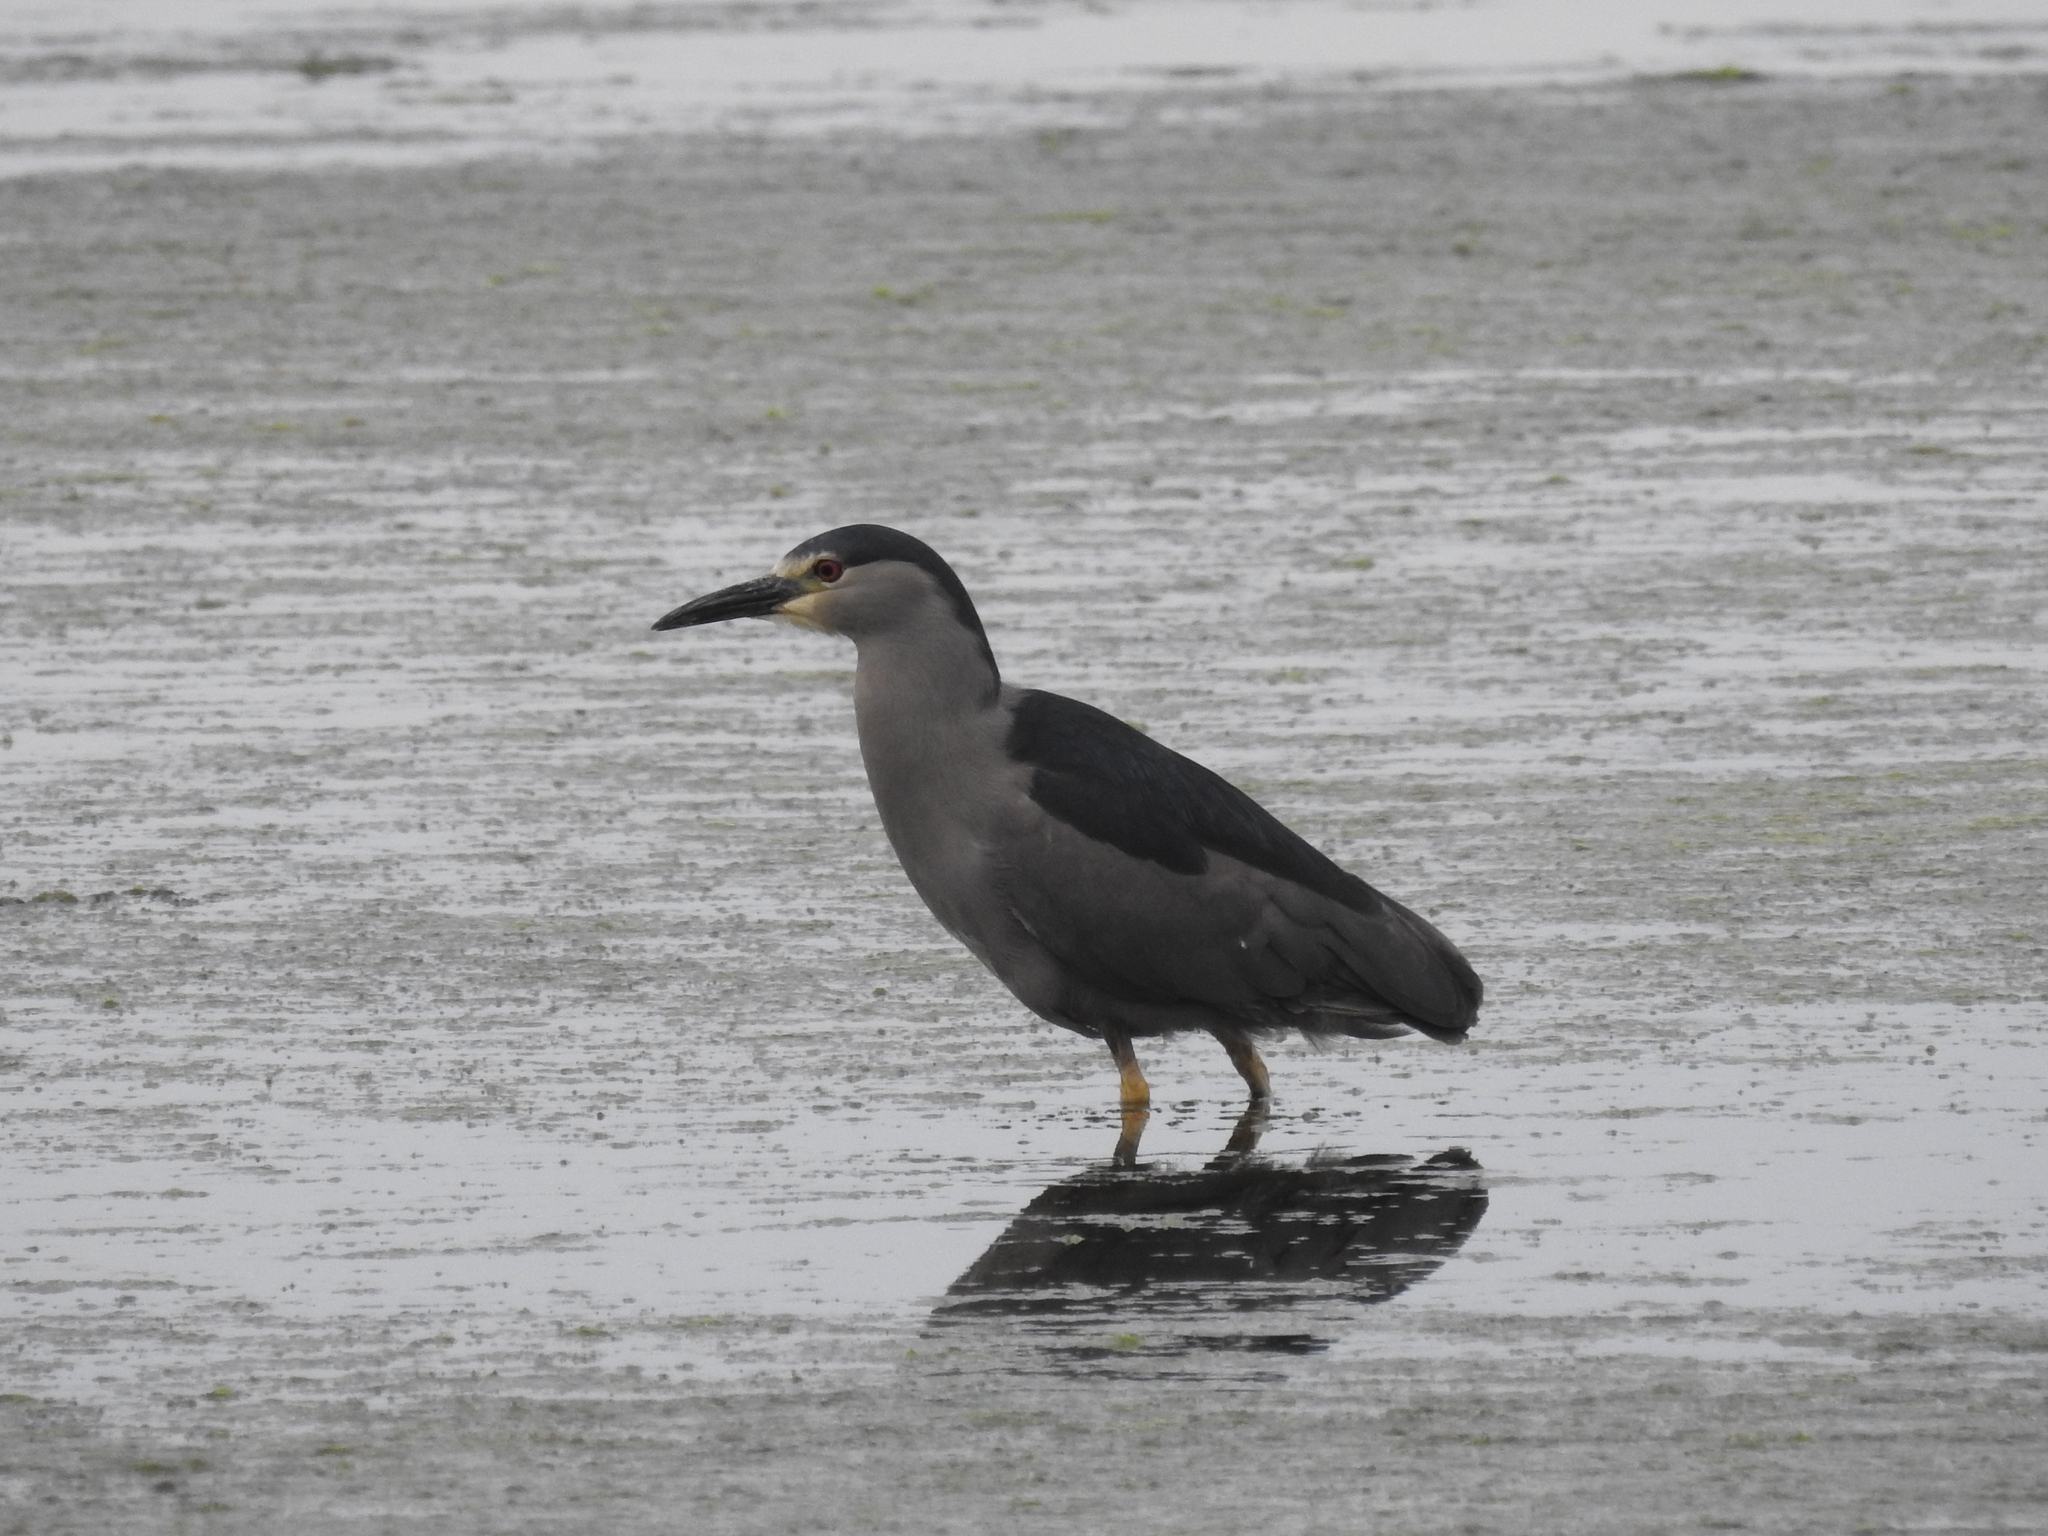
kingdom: Animalia
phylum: Chordata
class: Aves
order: Pelecaniformes
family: Ardeidae
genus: Nycticorax
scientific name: Nycticorax nycticorax
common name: Black-crowned night heron
